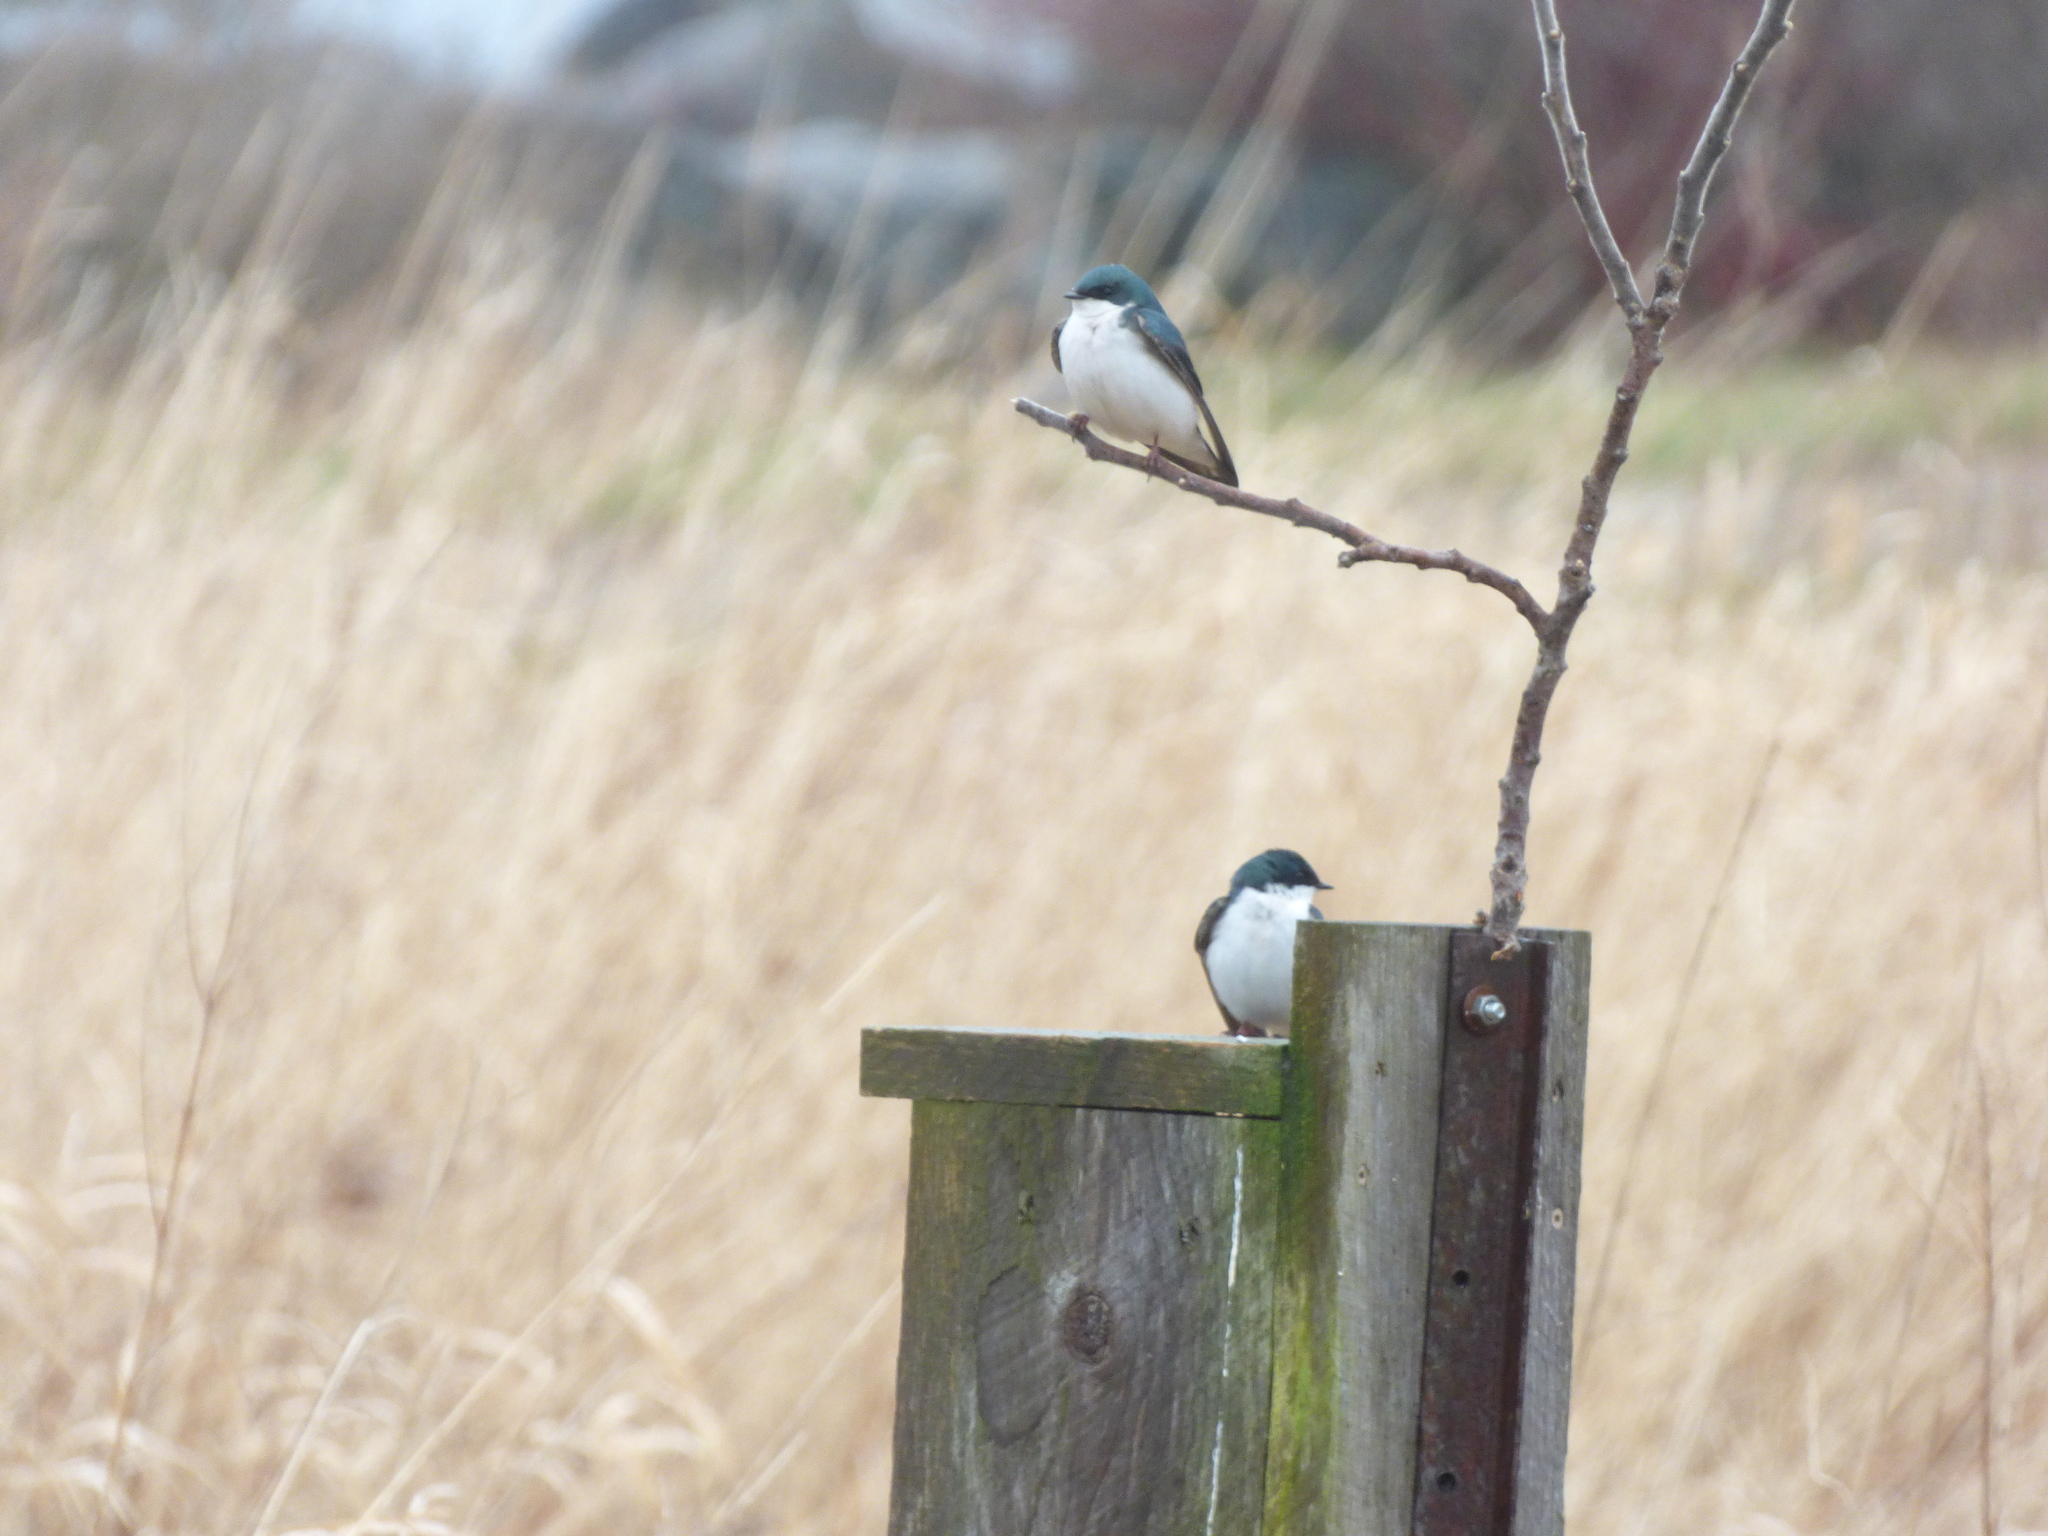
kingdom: Animalia
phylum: Chordata
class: Aves
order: Passeriformes
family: Hirundinidae
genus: Tachycineta
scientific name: Tachycineta bicolor
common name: Tree swallow
